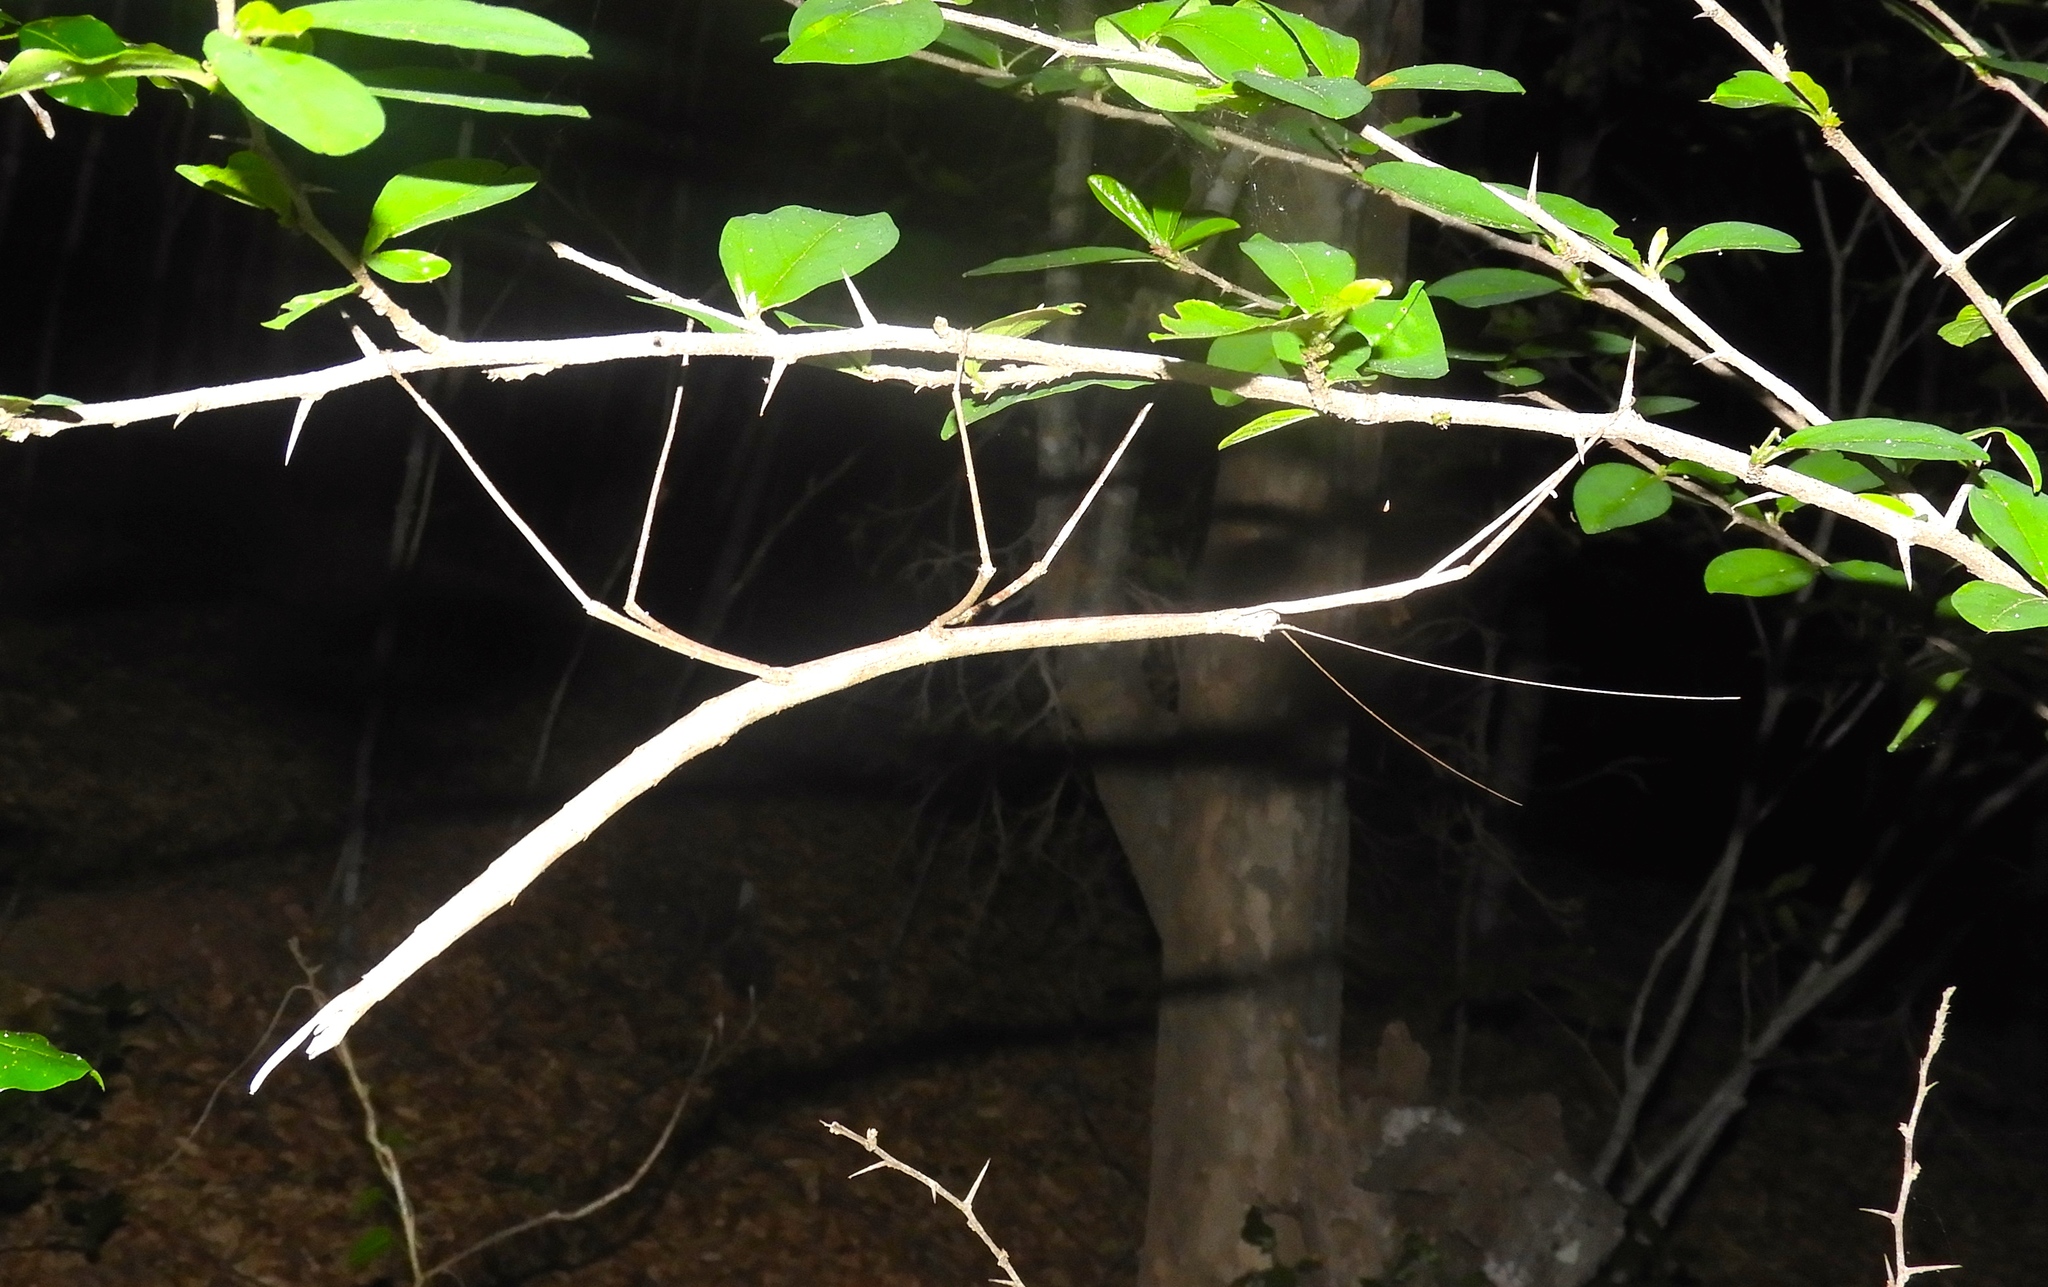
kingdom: Animalia
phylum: Arthropoda
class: Insecta
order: Phasmida
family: Diapheromeridae
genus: Phanocles
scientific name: Phanocles
